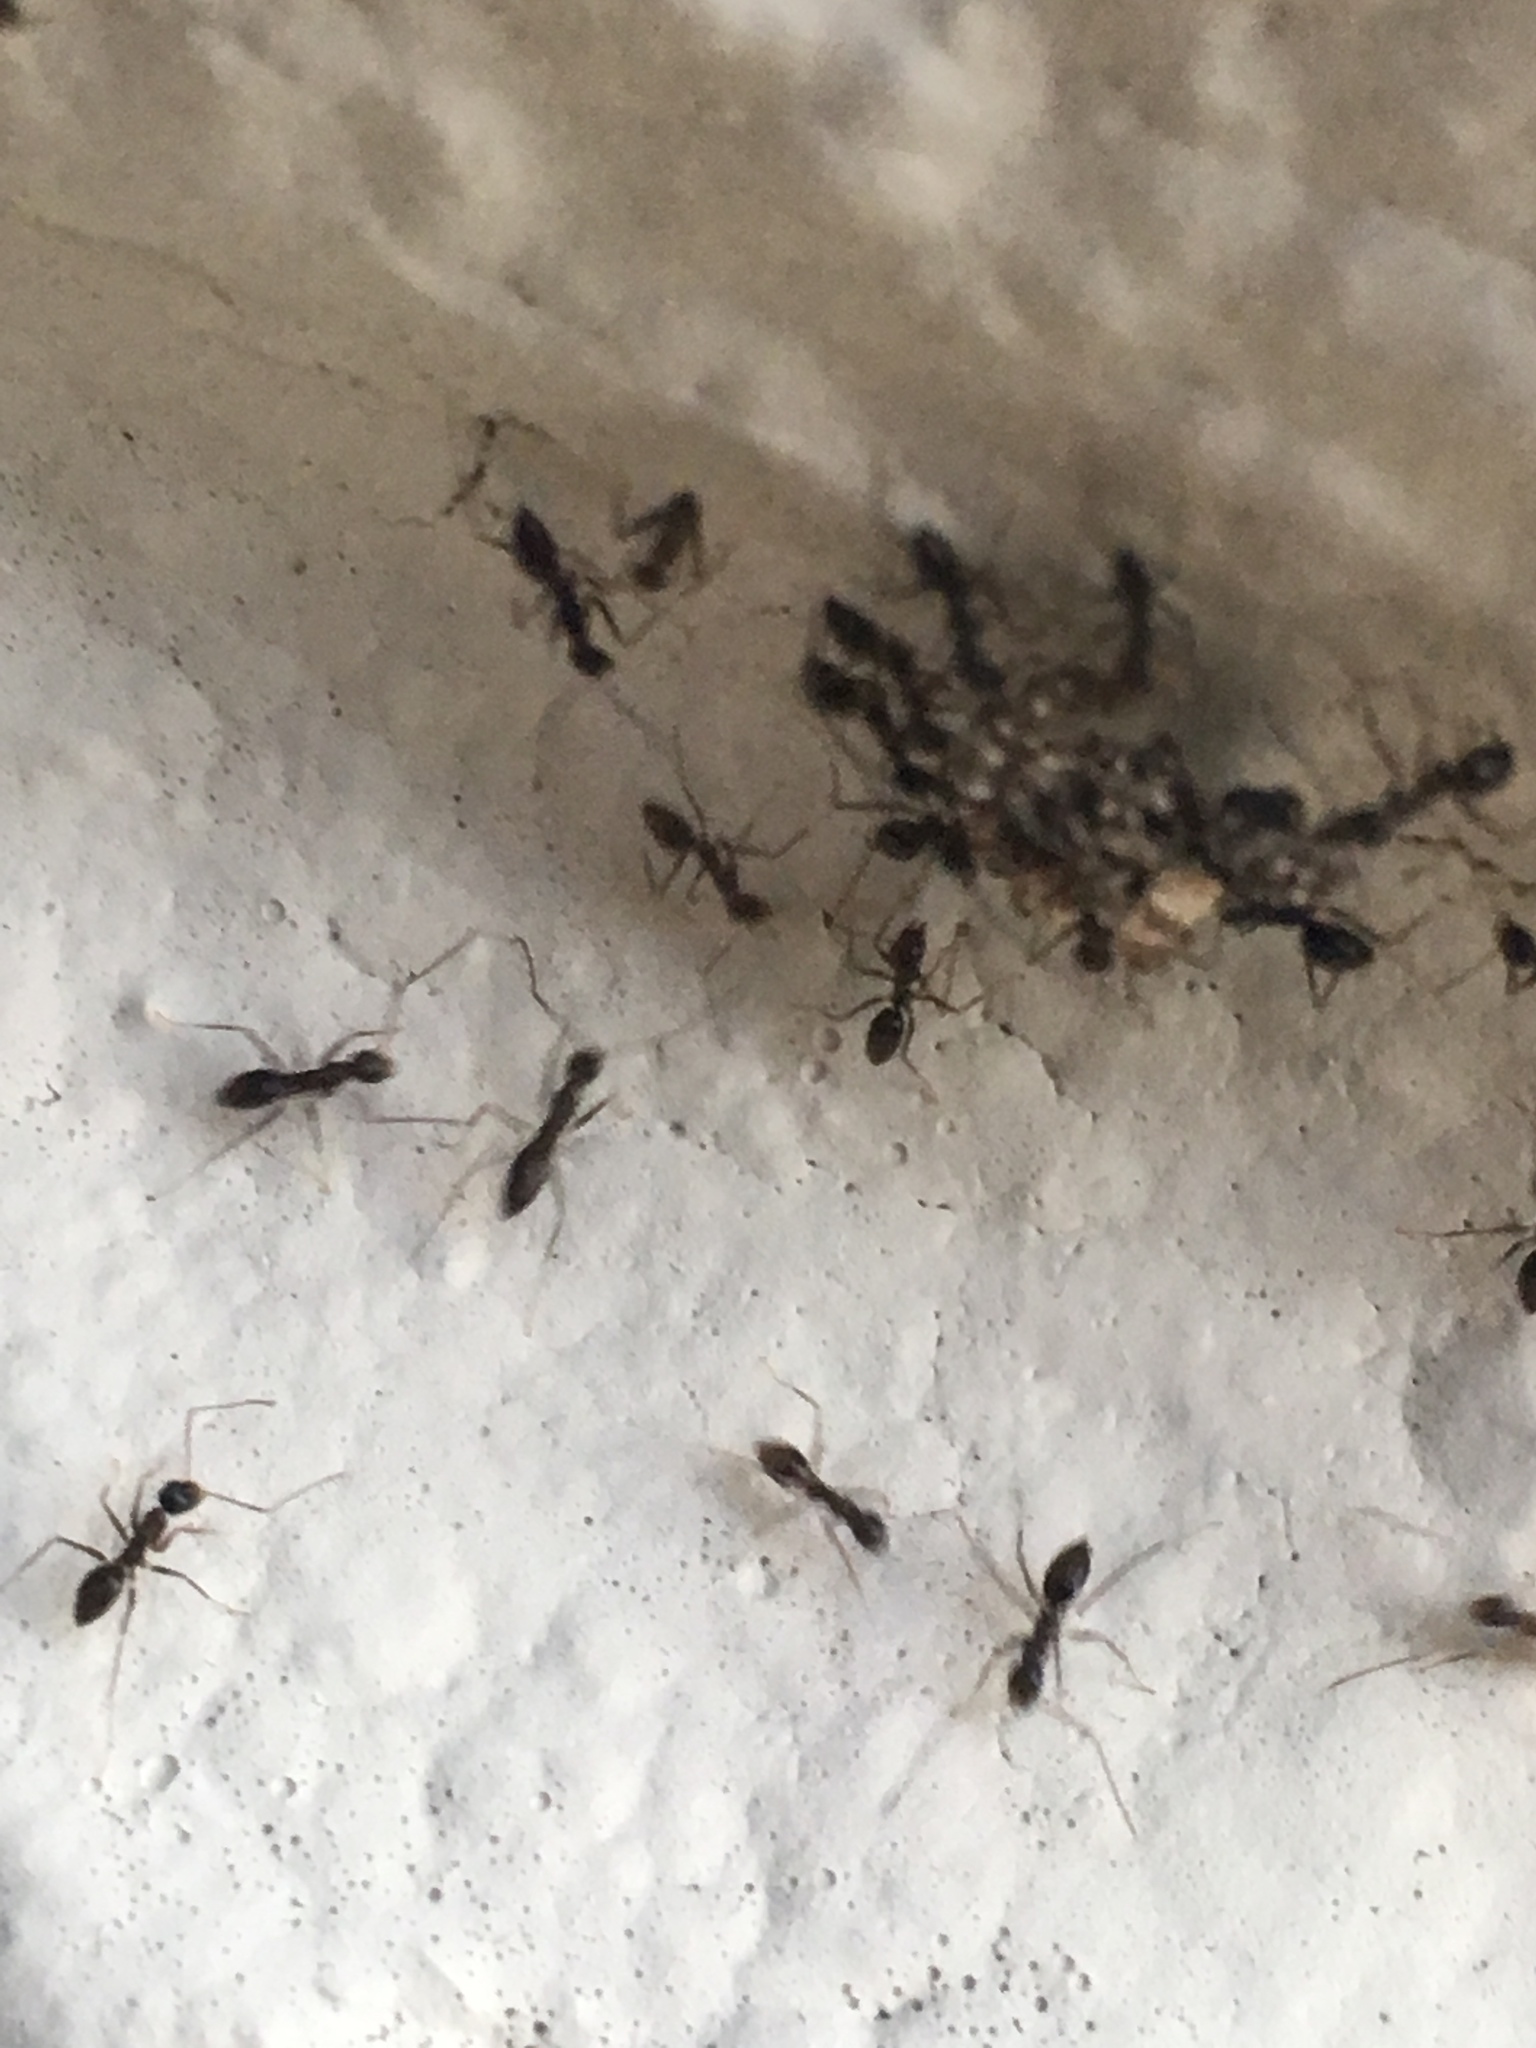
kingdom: Animalia
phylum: Arthropoda
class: Insecta
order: Hymenoptera
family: Formicidae
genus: Paratrechina
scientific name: Paratrechina longicornis
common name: Longhorned crazy ant
